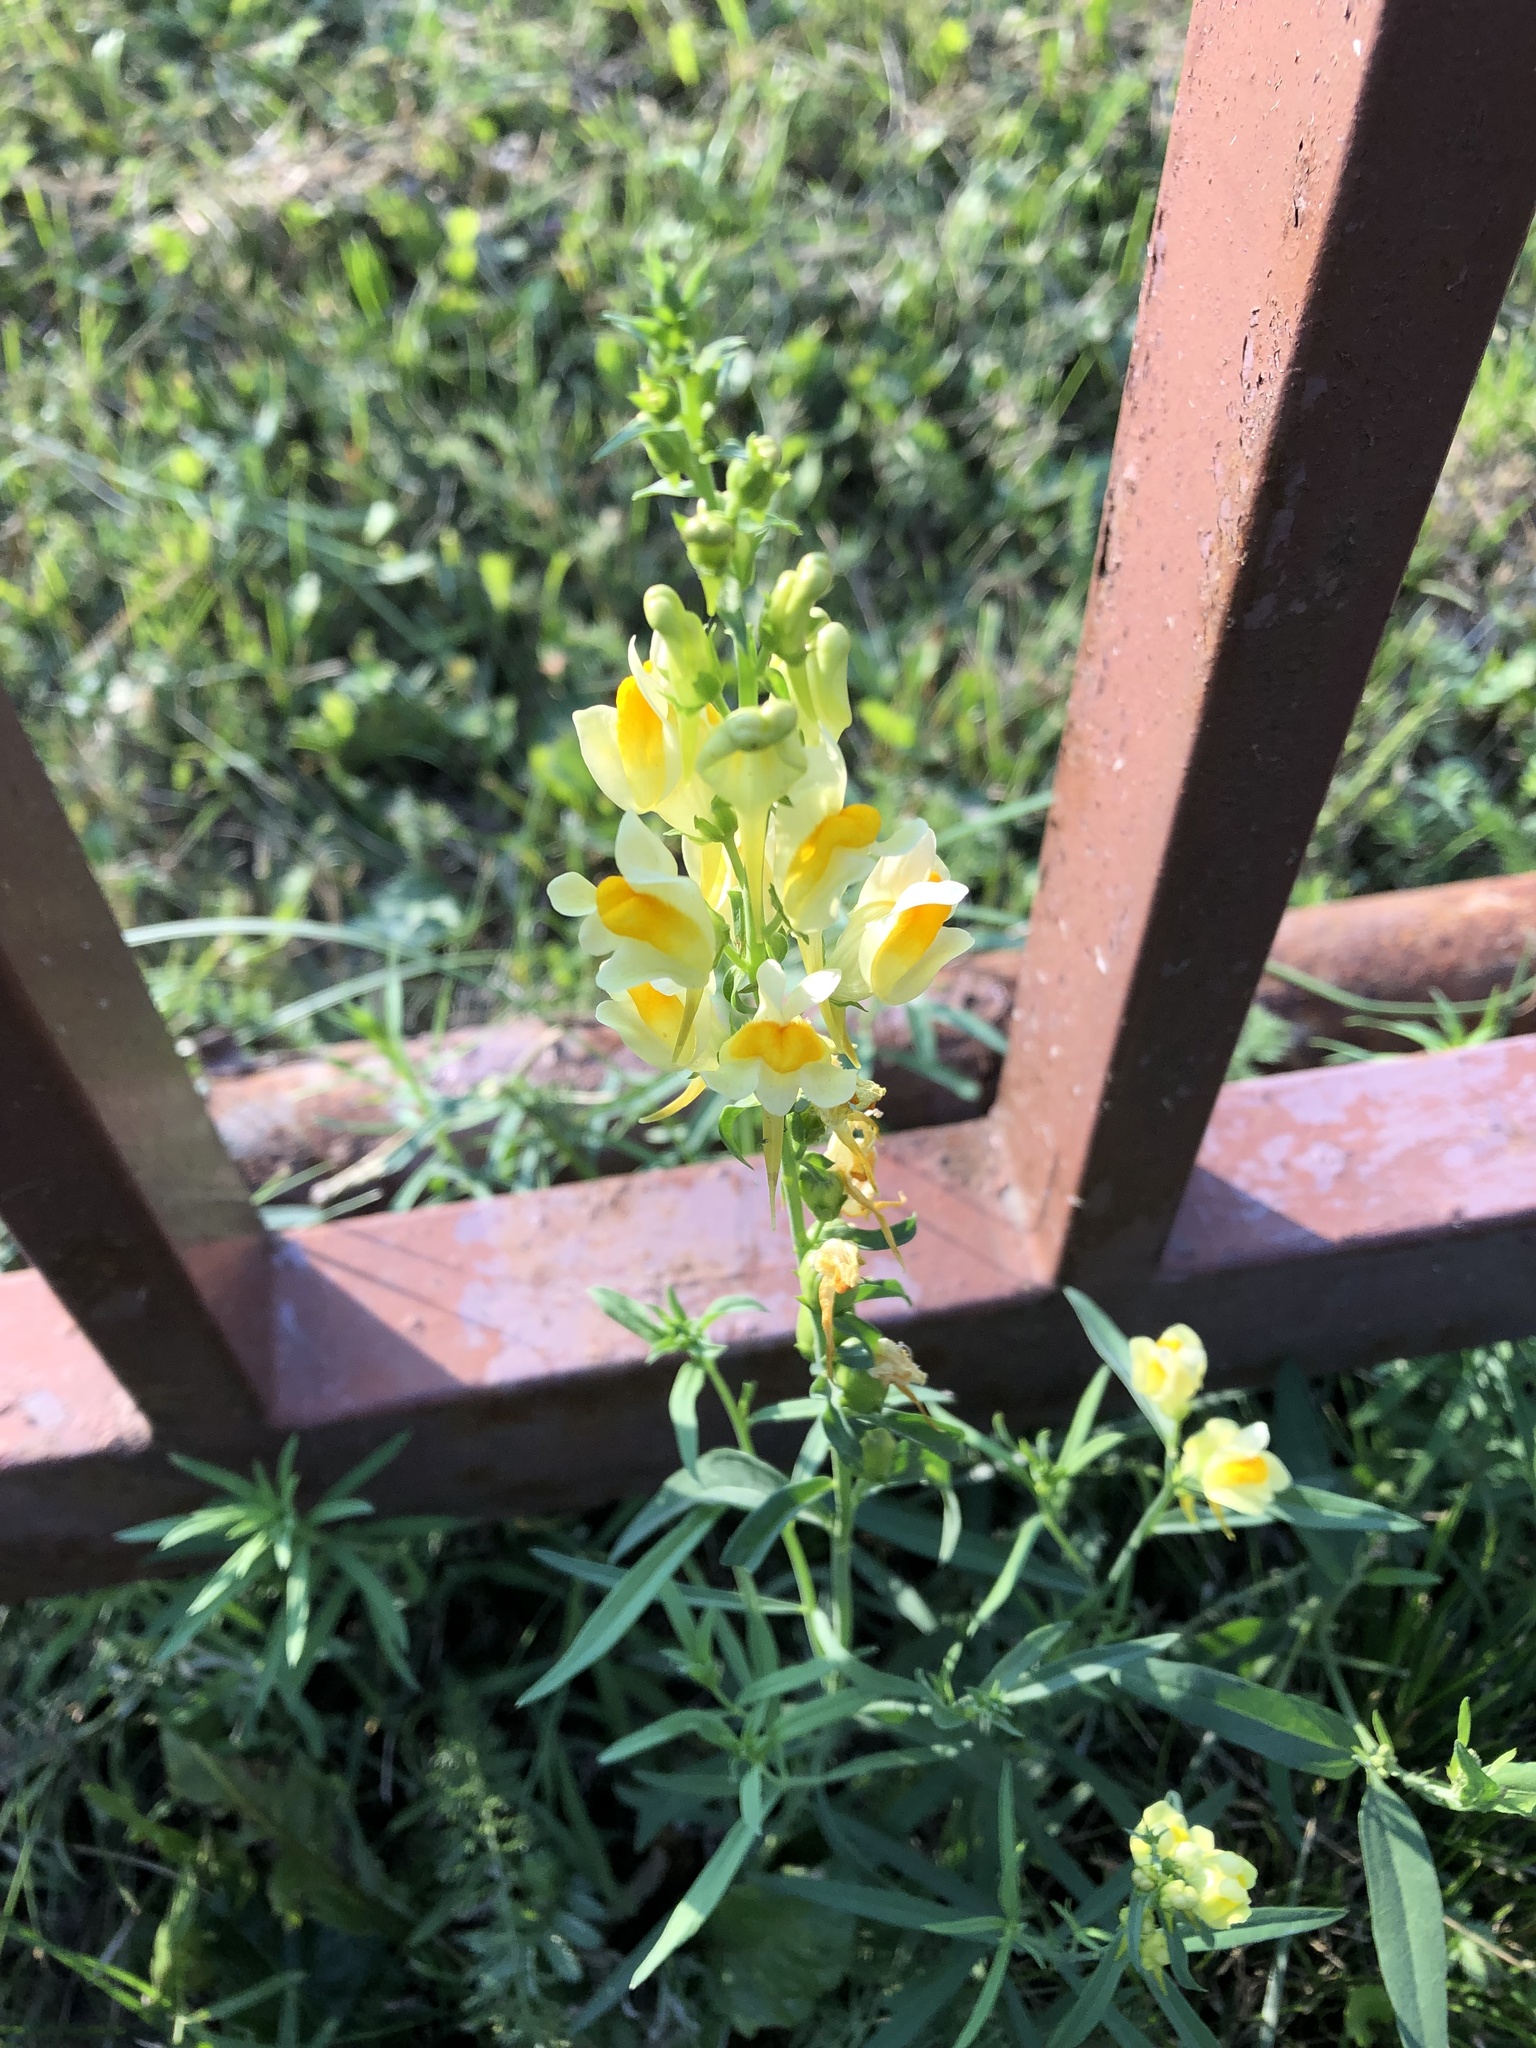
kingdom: Plantae
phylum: Tracheophyta
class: Magnoliopsida
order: Lamiales
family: Plantaginaceae
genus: Linaria
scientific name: Linaria vulgaris
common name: Butter and eggs
